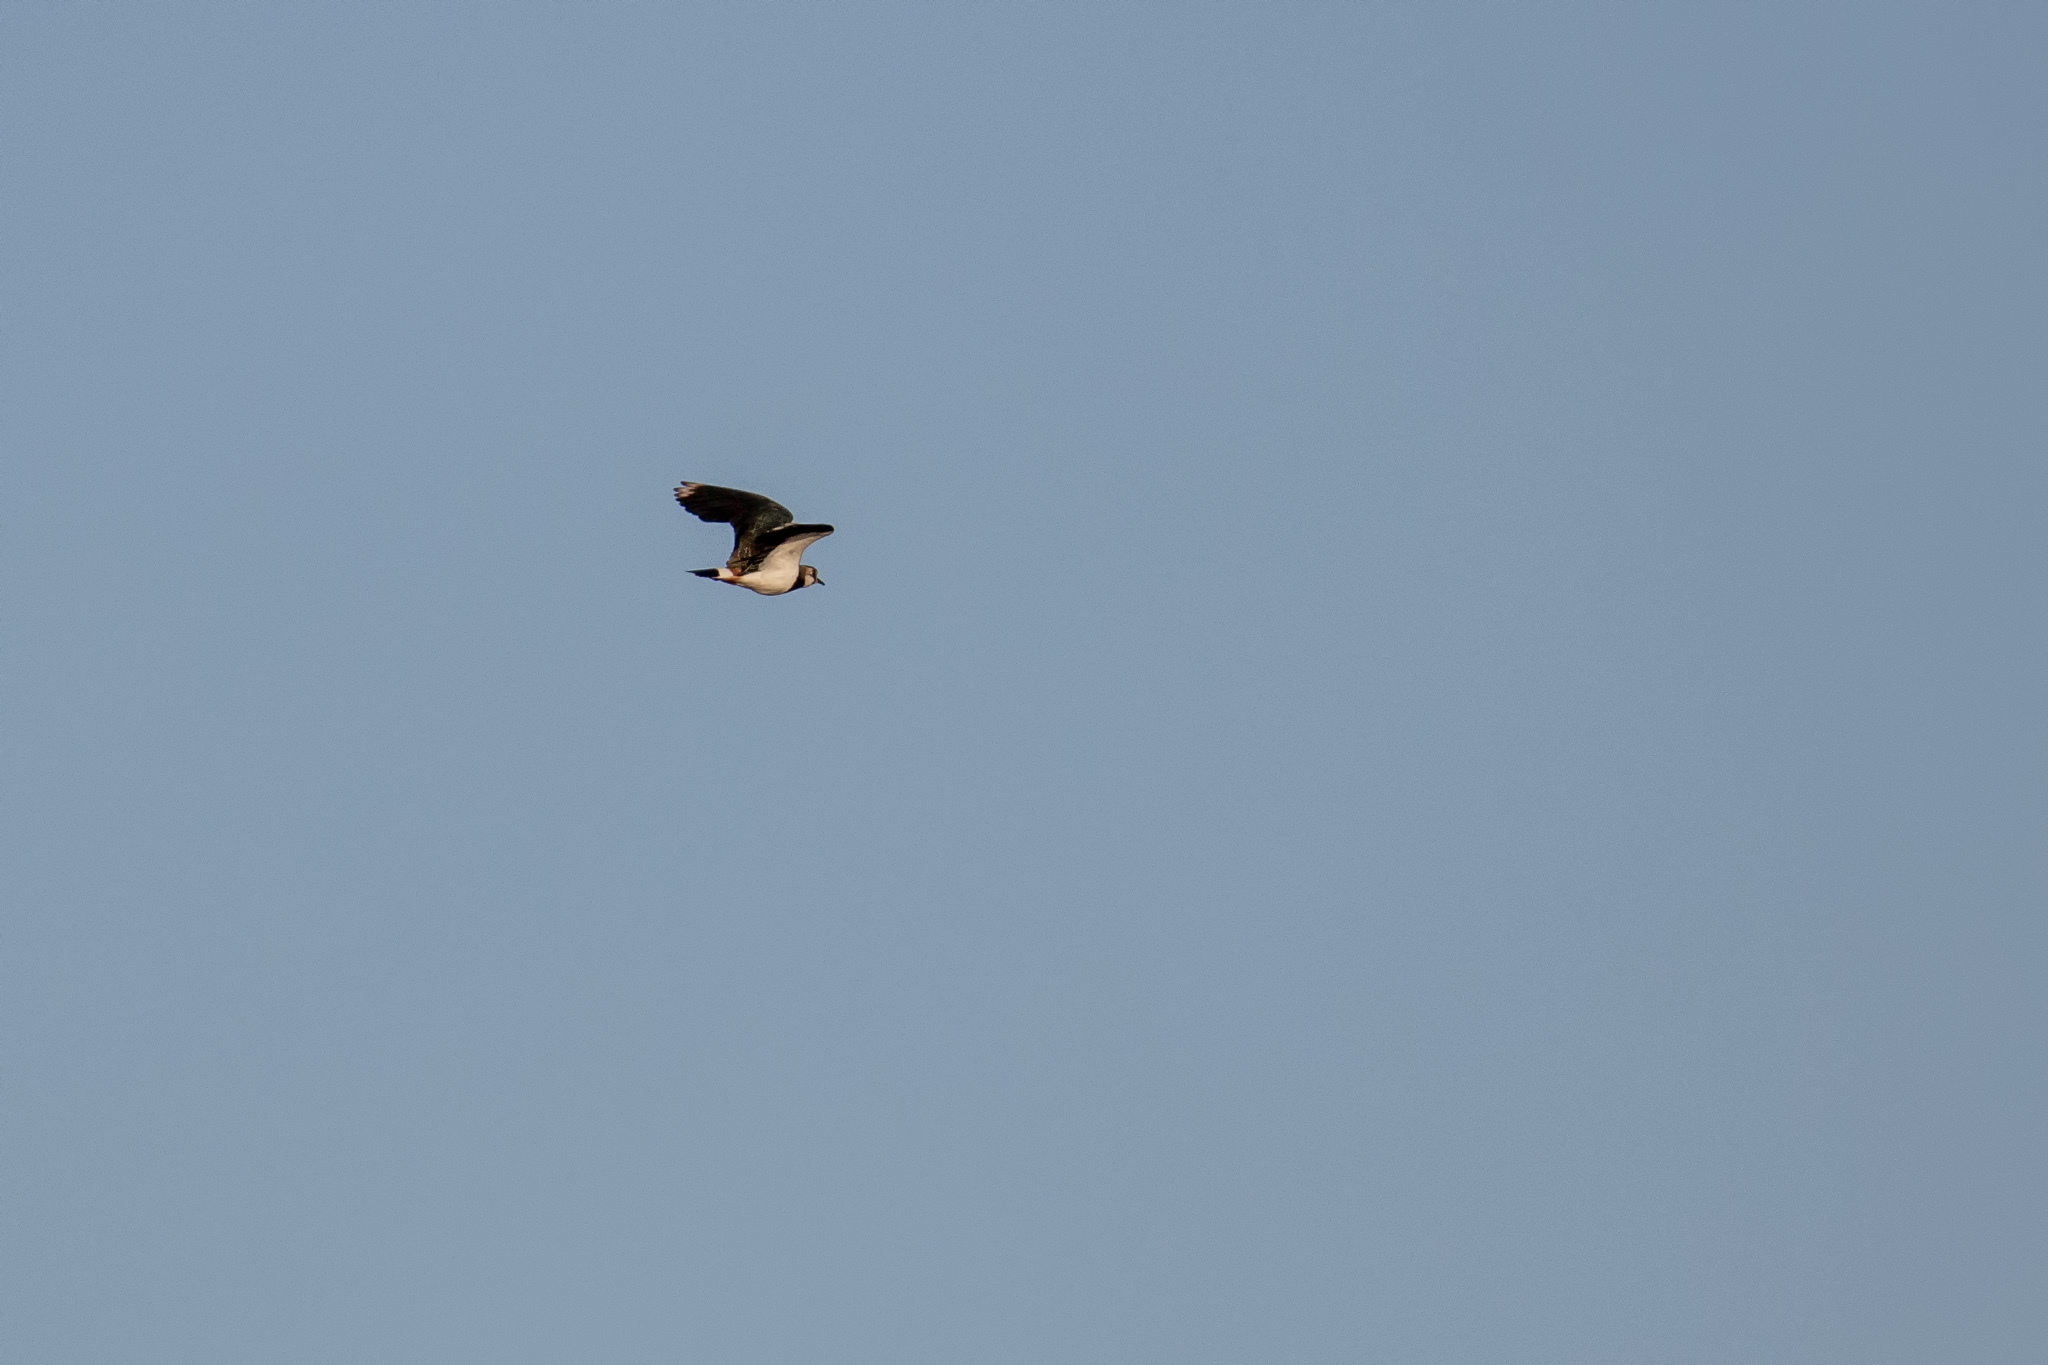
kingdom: Animalia
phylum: Chordata
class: Aves
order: Charadriiformes
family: Charadriidae
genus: Vanellus
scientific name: Vanellus vanellus
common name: Northern lapwing
